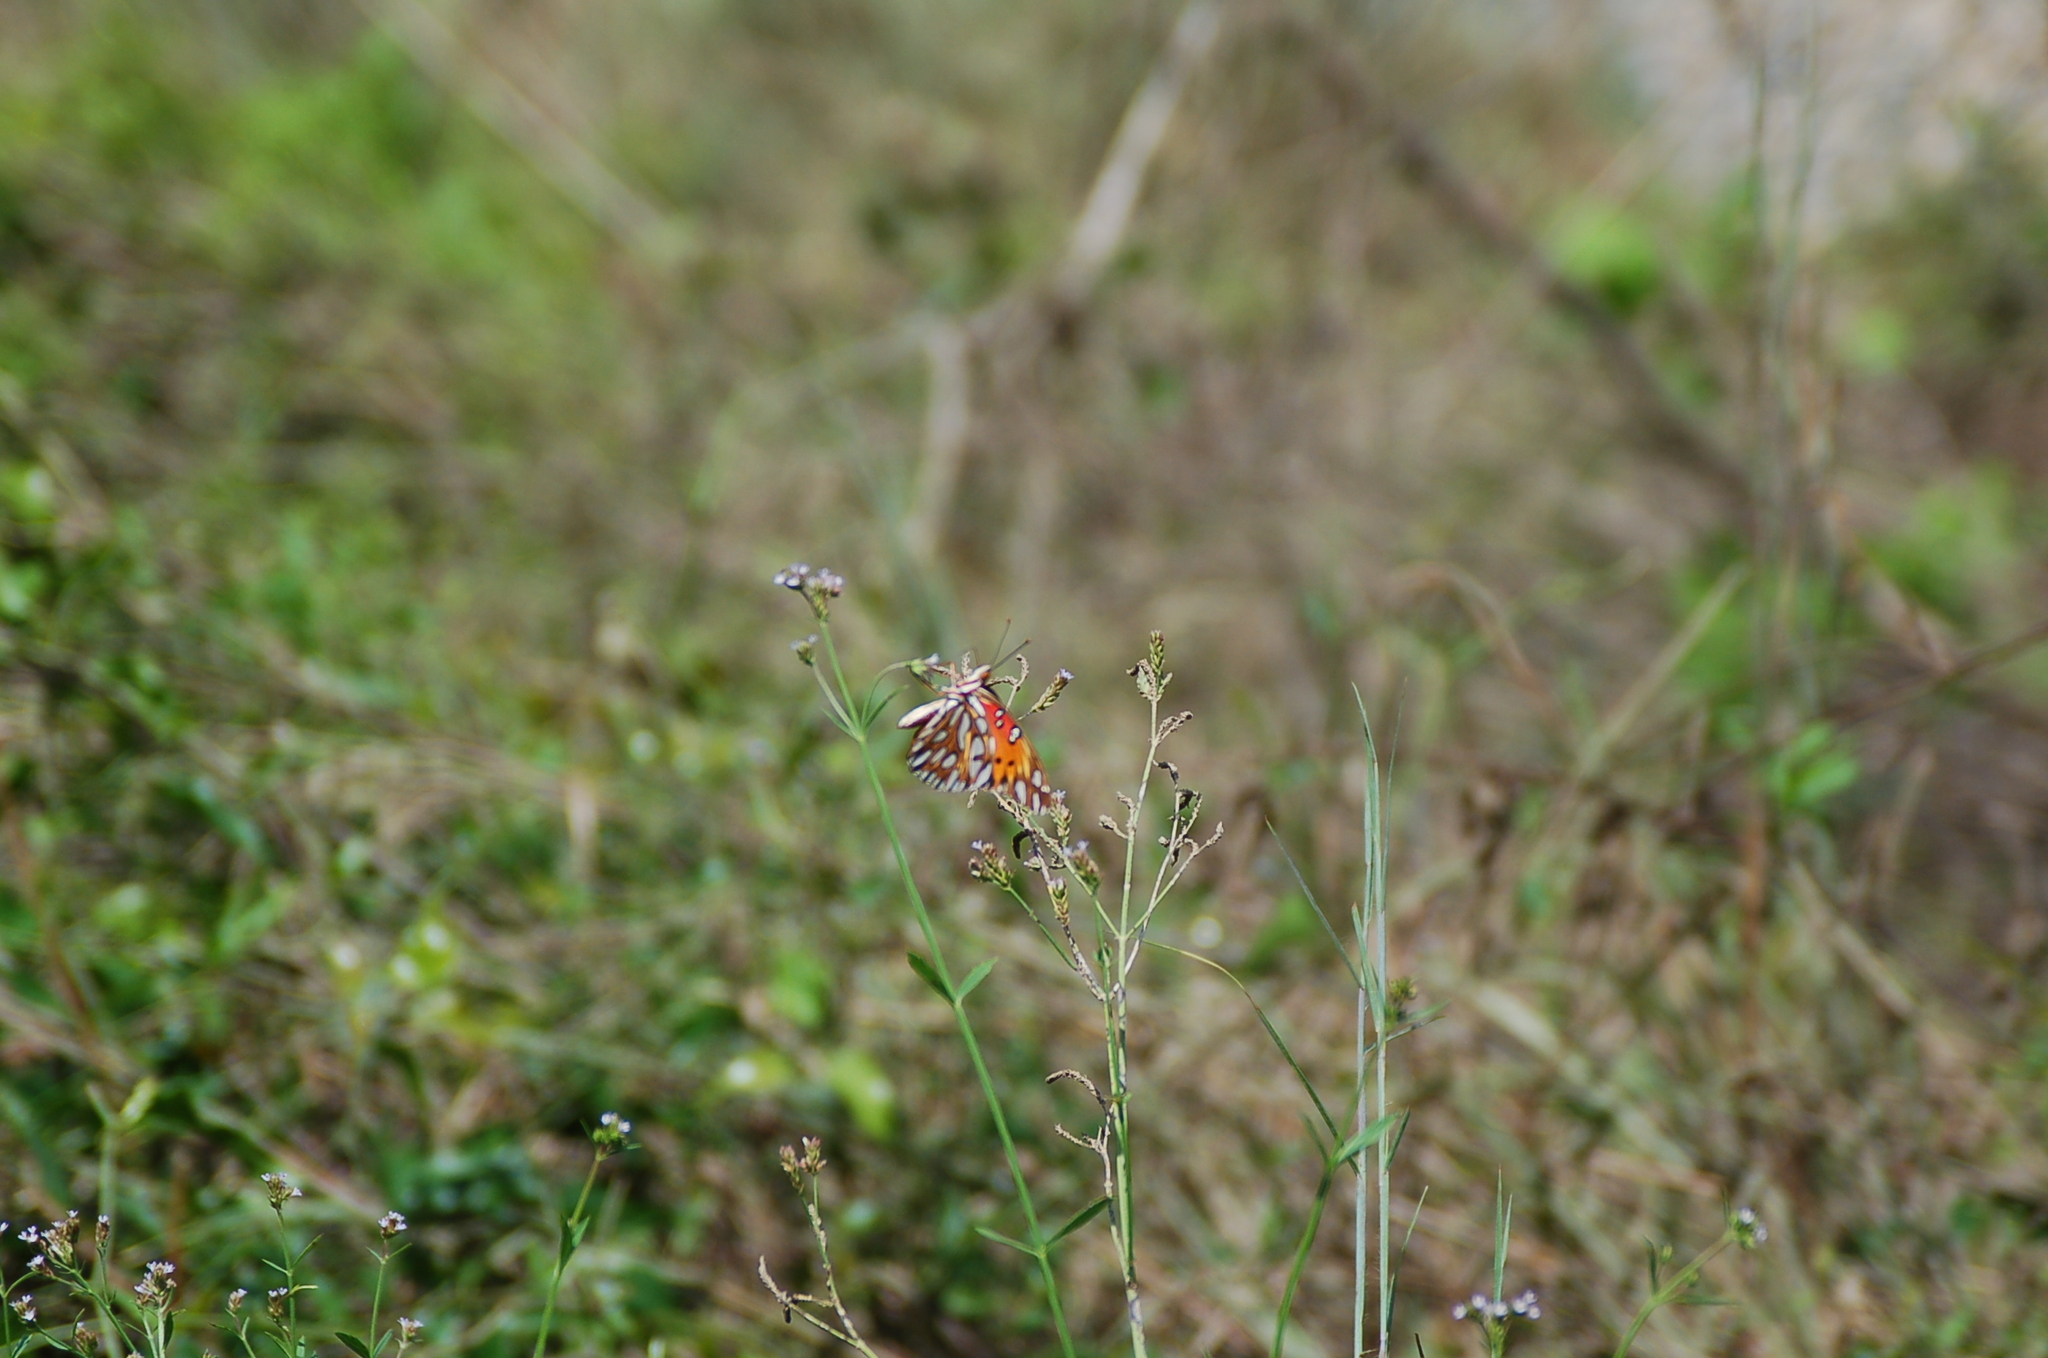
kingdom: Animalia
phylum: Arthropoda
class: Insecta
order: Lepidoptera
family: Nymphalidae
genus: Dione
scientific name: Dione vanillae
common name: Gulf fritillary
